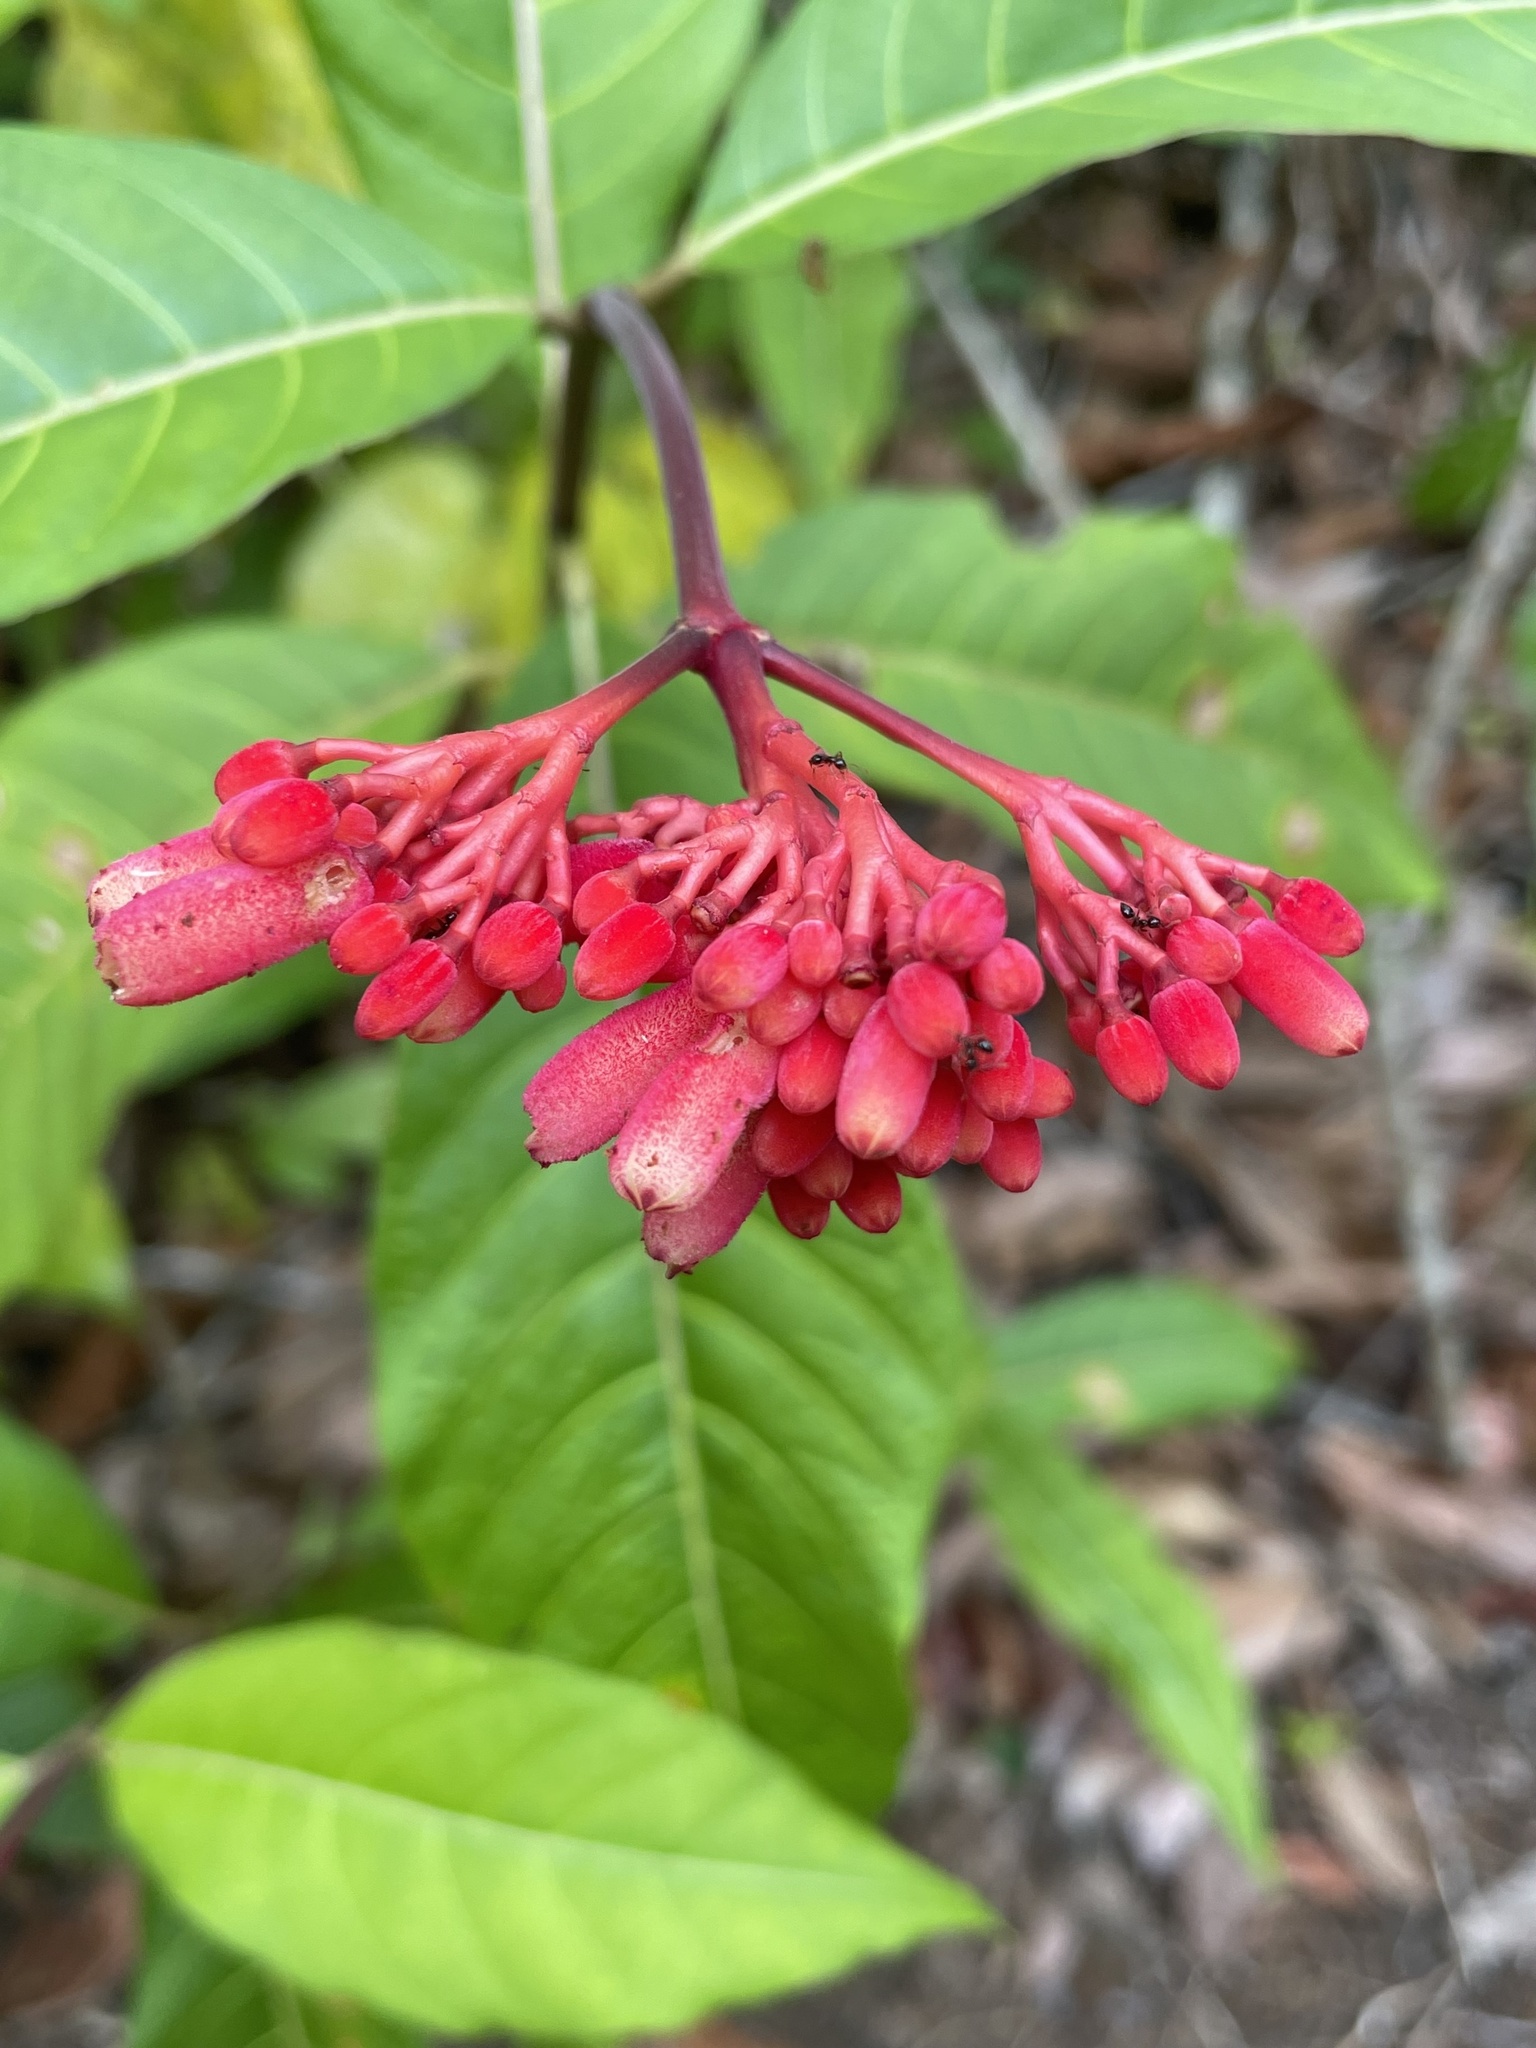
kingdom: Plantae
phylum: Tracheophyta
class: Magnoliopsida
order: Gentianales
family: Rubiaceae
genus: Palicourea
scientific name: Palicourea nitidella
